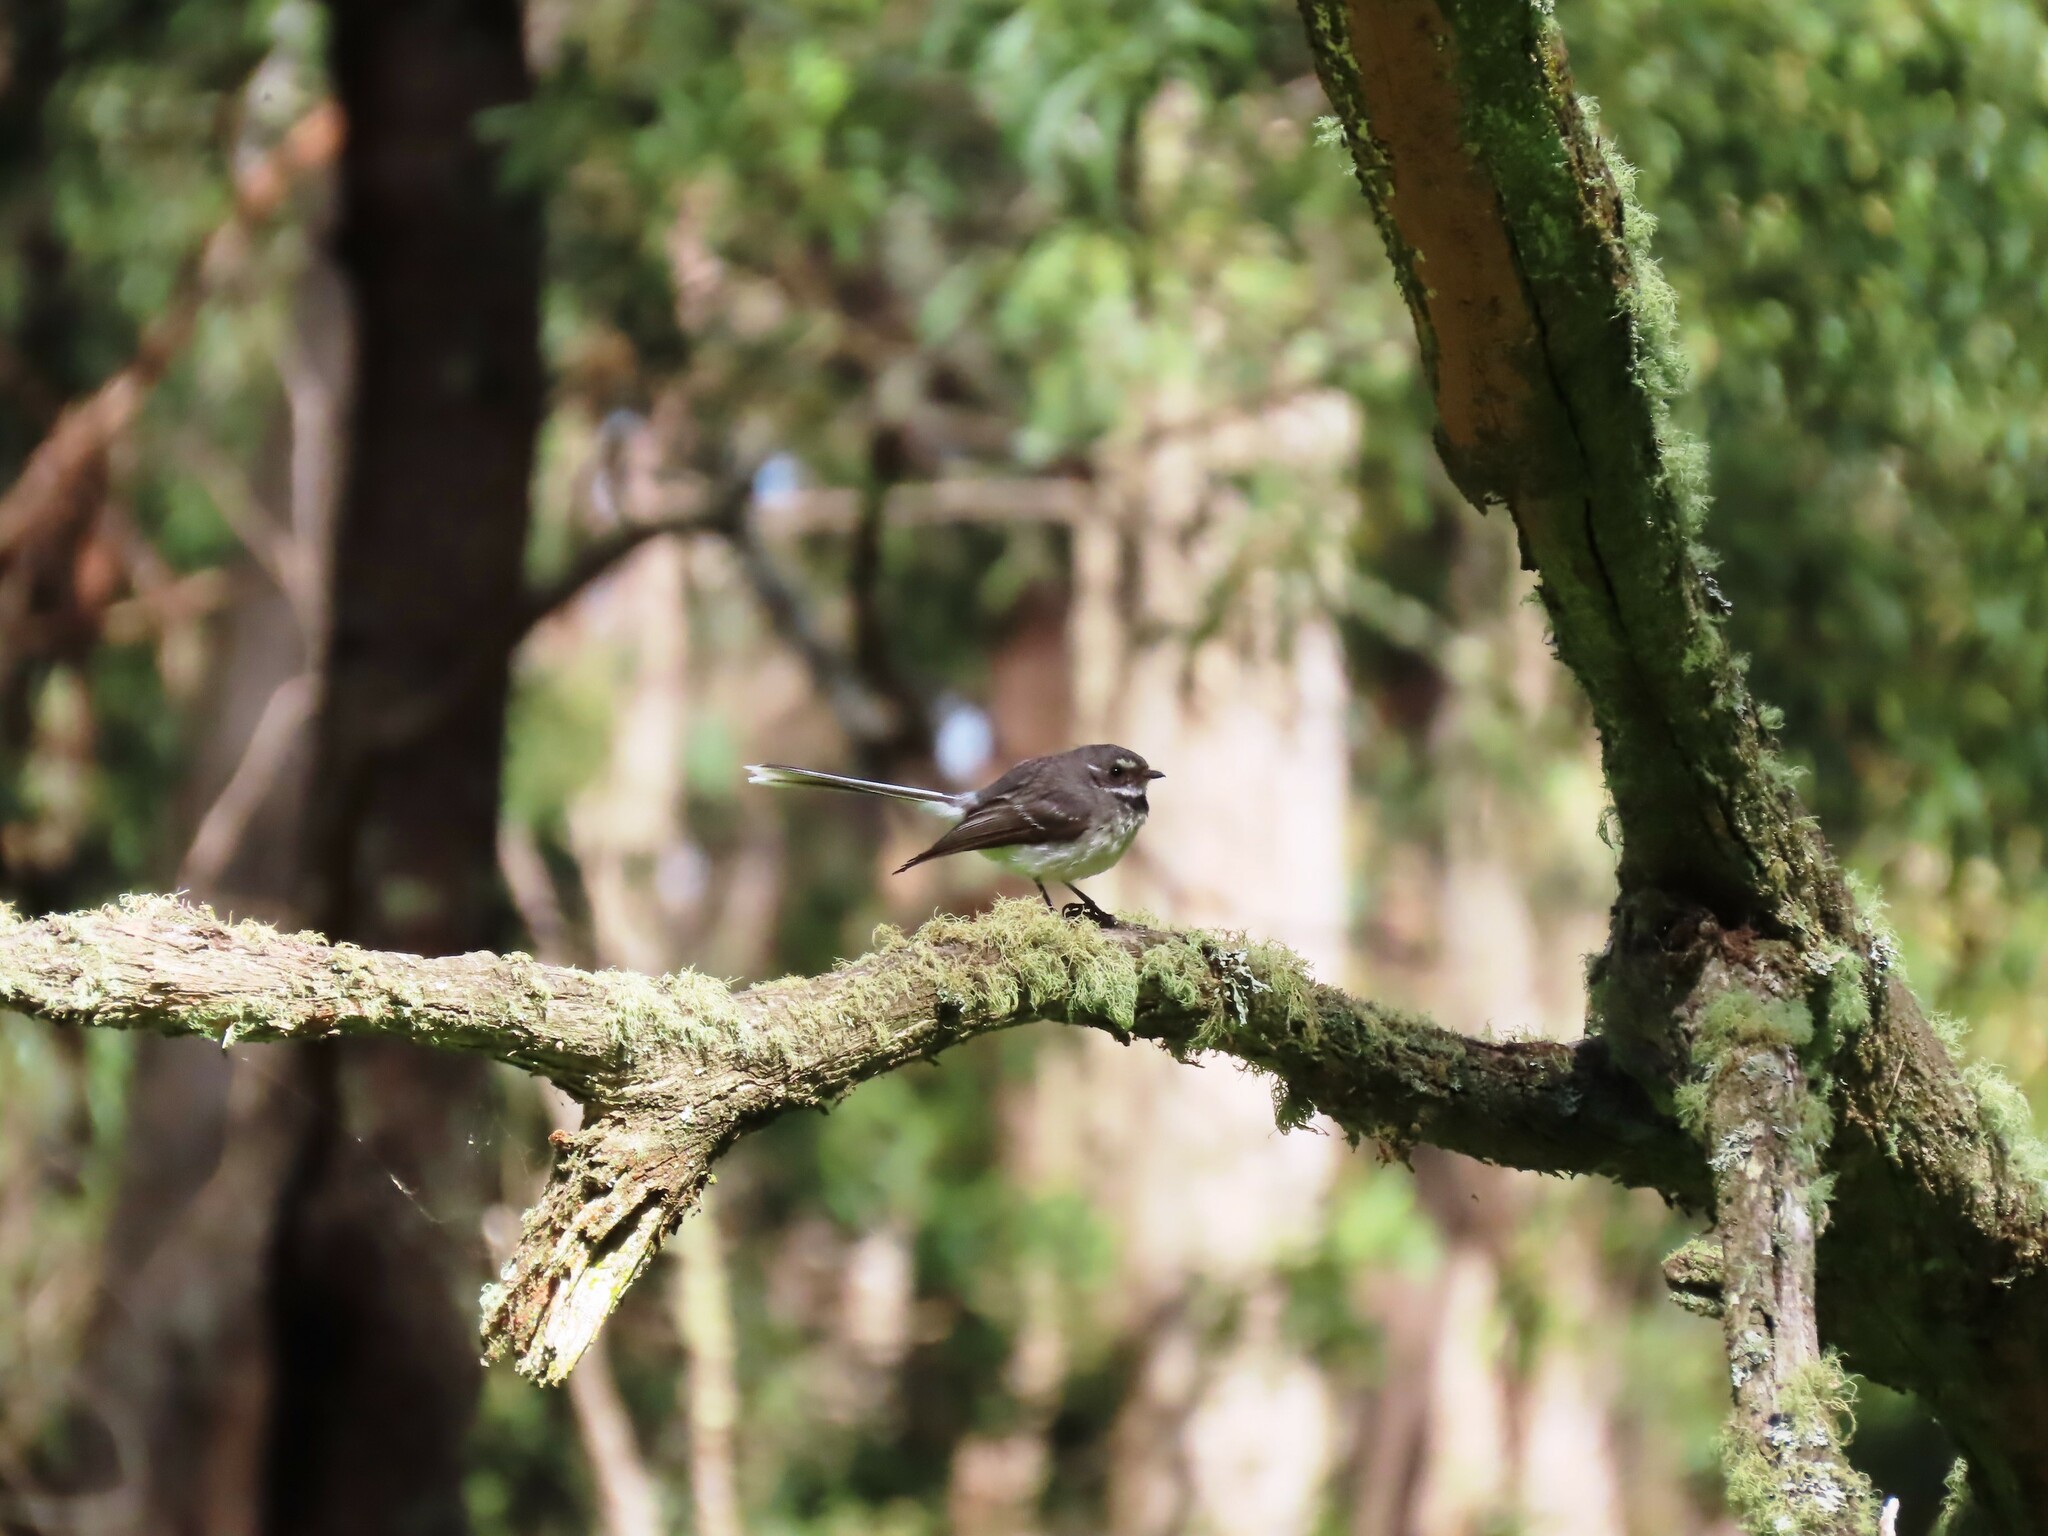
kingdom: Animalia
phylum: Chordata
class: Aves
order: Passeriformes
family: Rhipiduridae
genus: Rhipidura
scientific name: Rhipidura albiscapa
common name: Grey fantail
